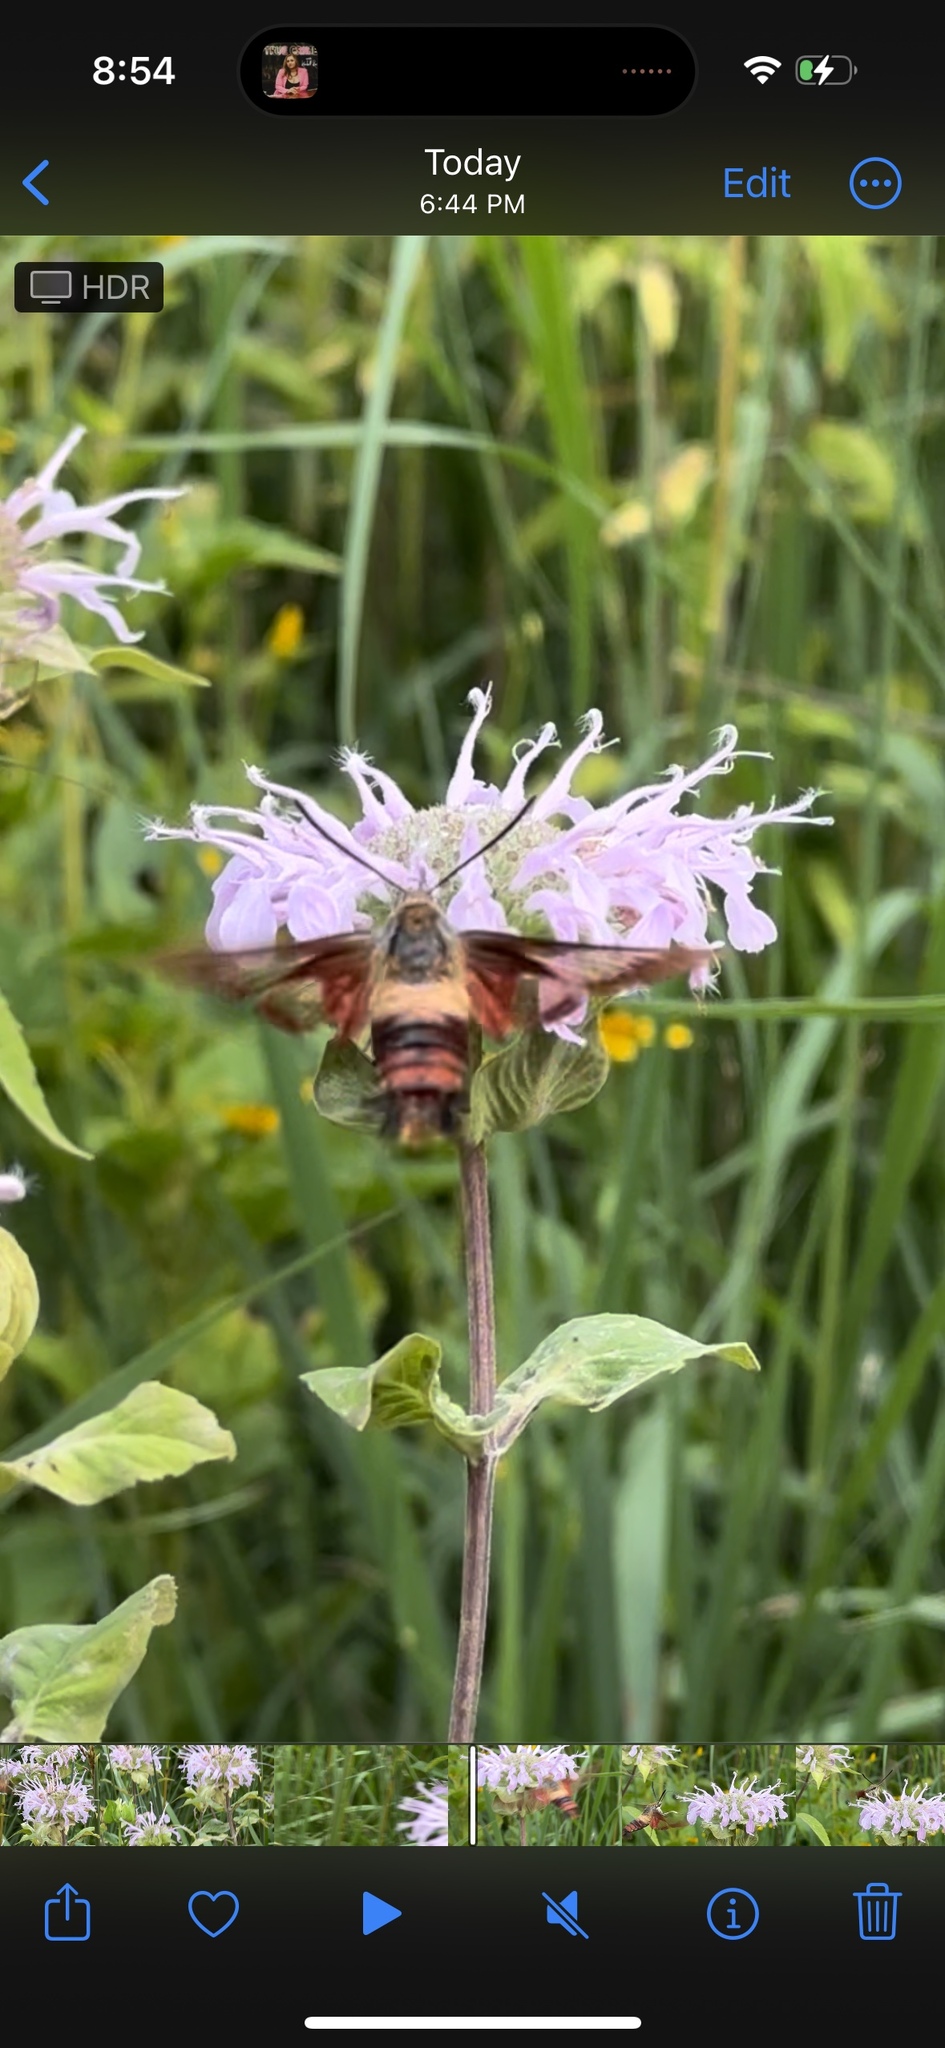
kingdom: Animalia
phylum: Arthropoda
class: Insecta
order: Lepidoptera
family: Sphingidae
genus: Hemaris
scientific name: Hemaris thysbe
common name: Common clear-wing
